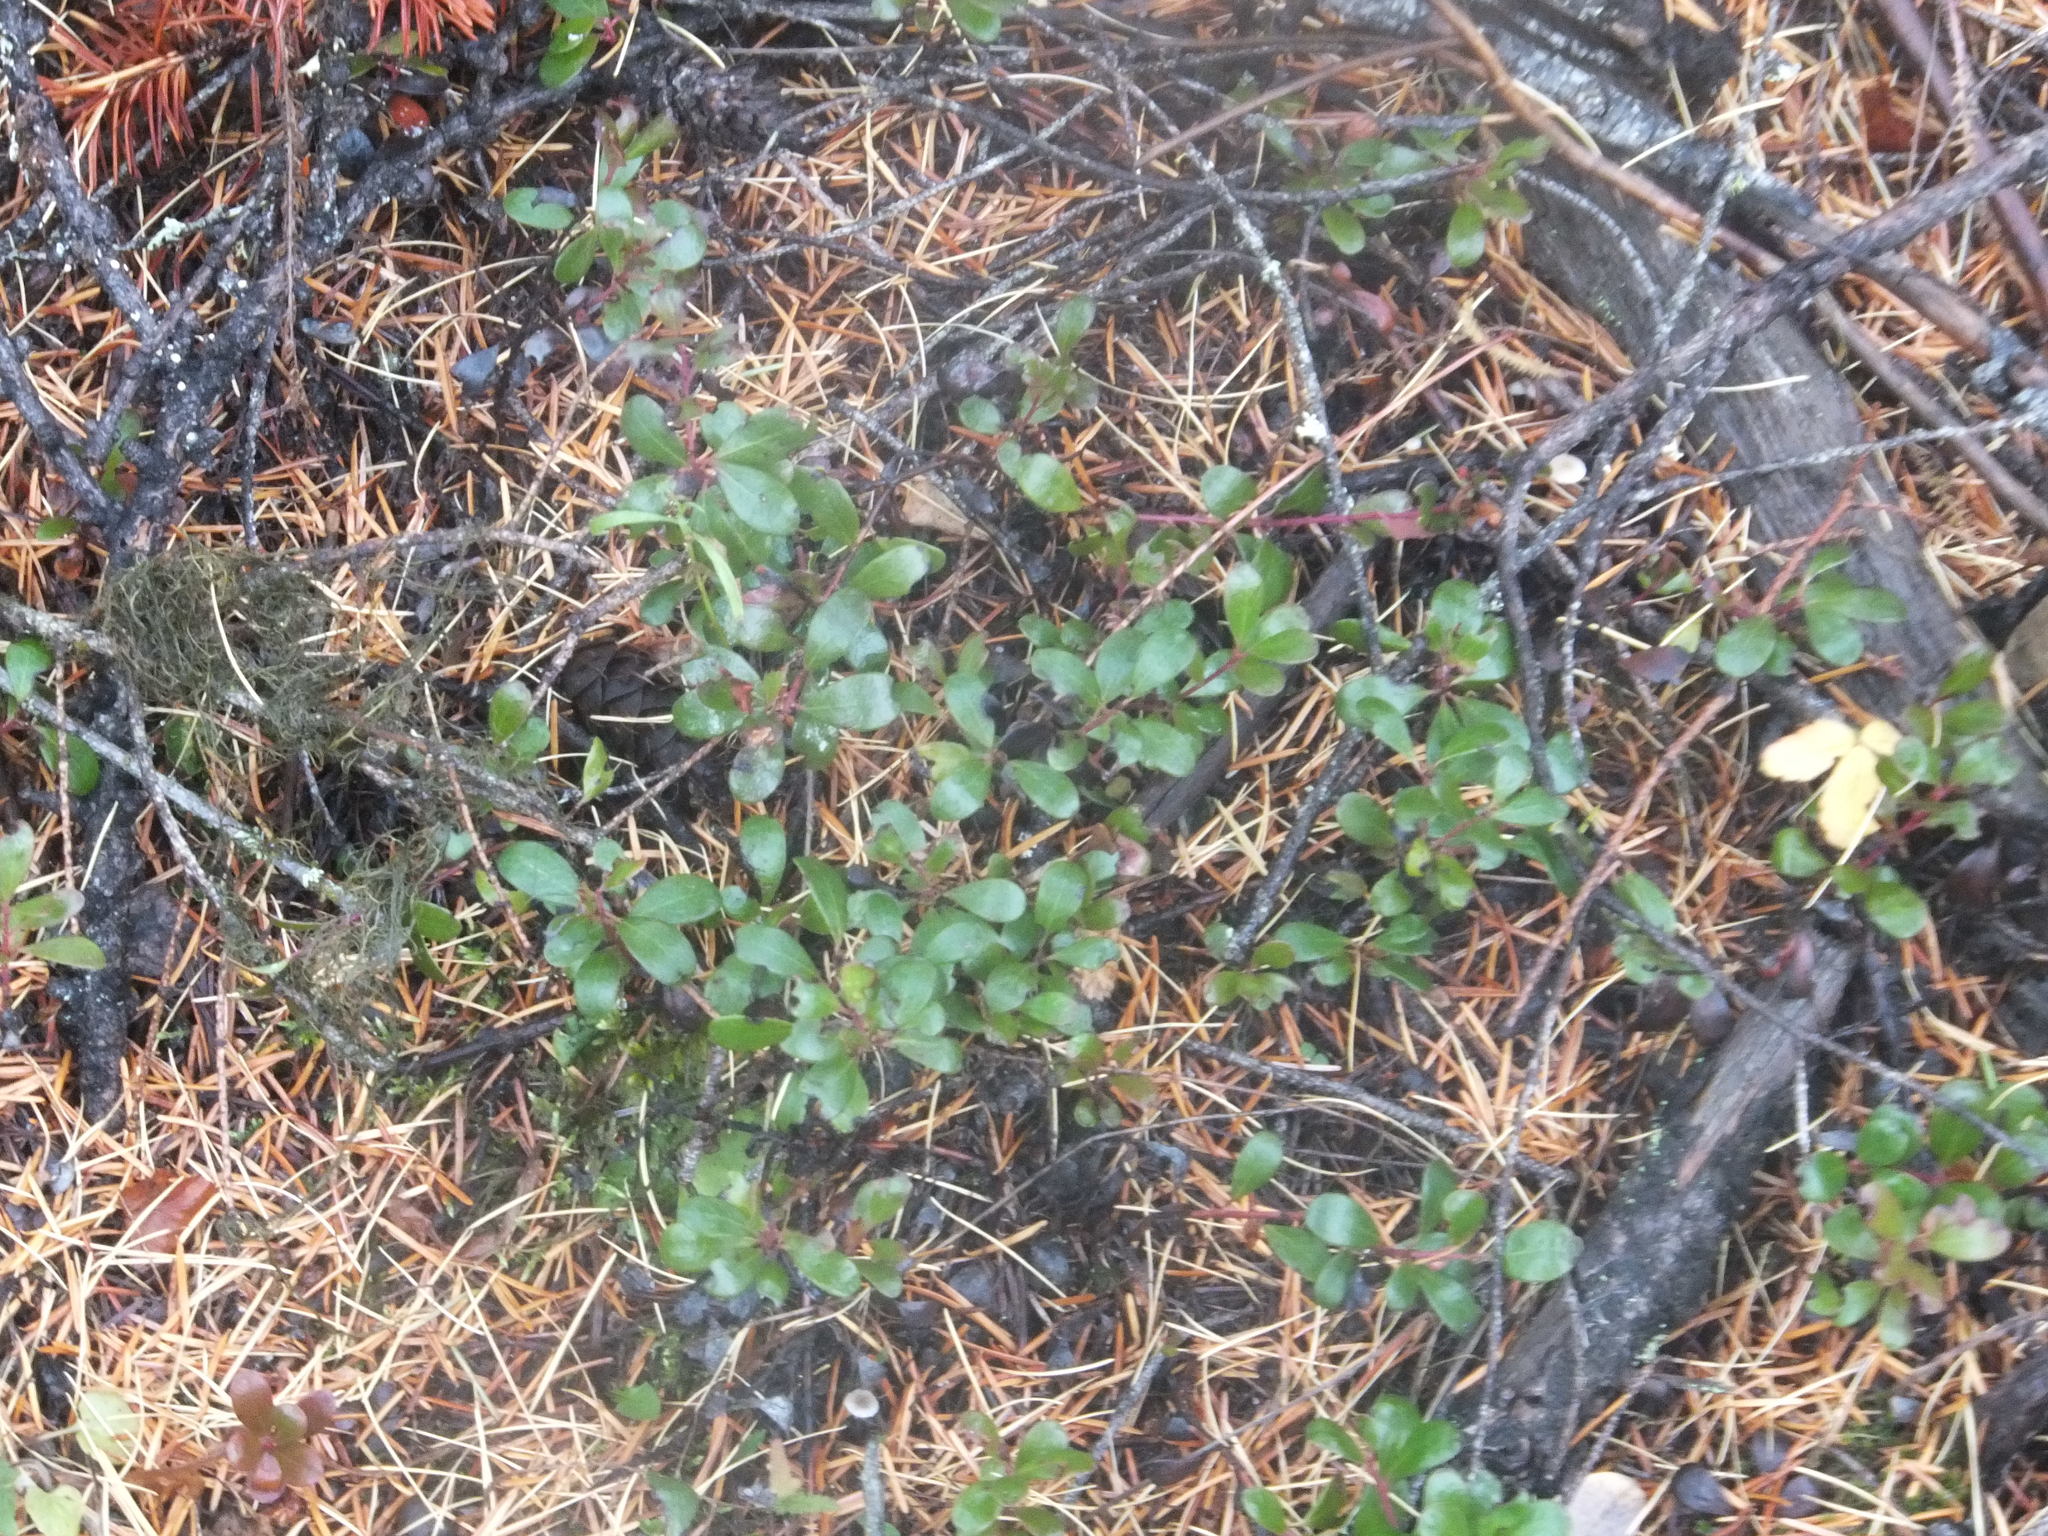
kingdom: Plantae
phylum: Tracheophyta
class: Magnoliopsida
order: Ericales
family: Ericaceae
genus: Arctostaphylos
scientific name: Arctostaphylos uva-ursi
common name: Bearberry
